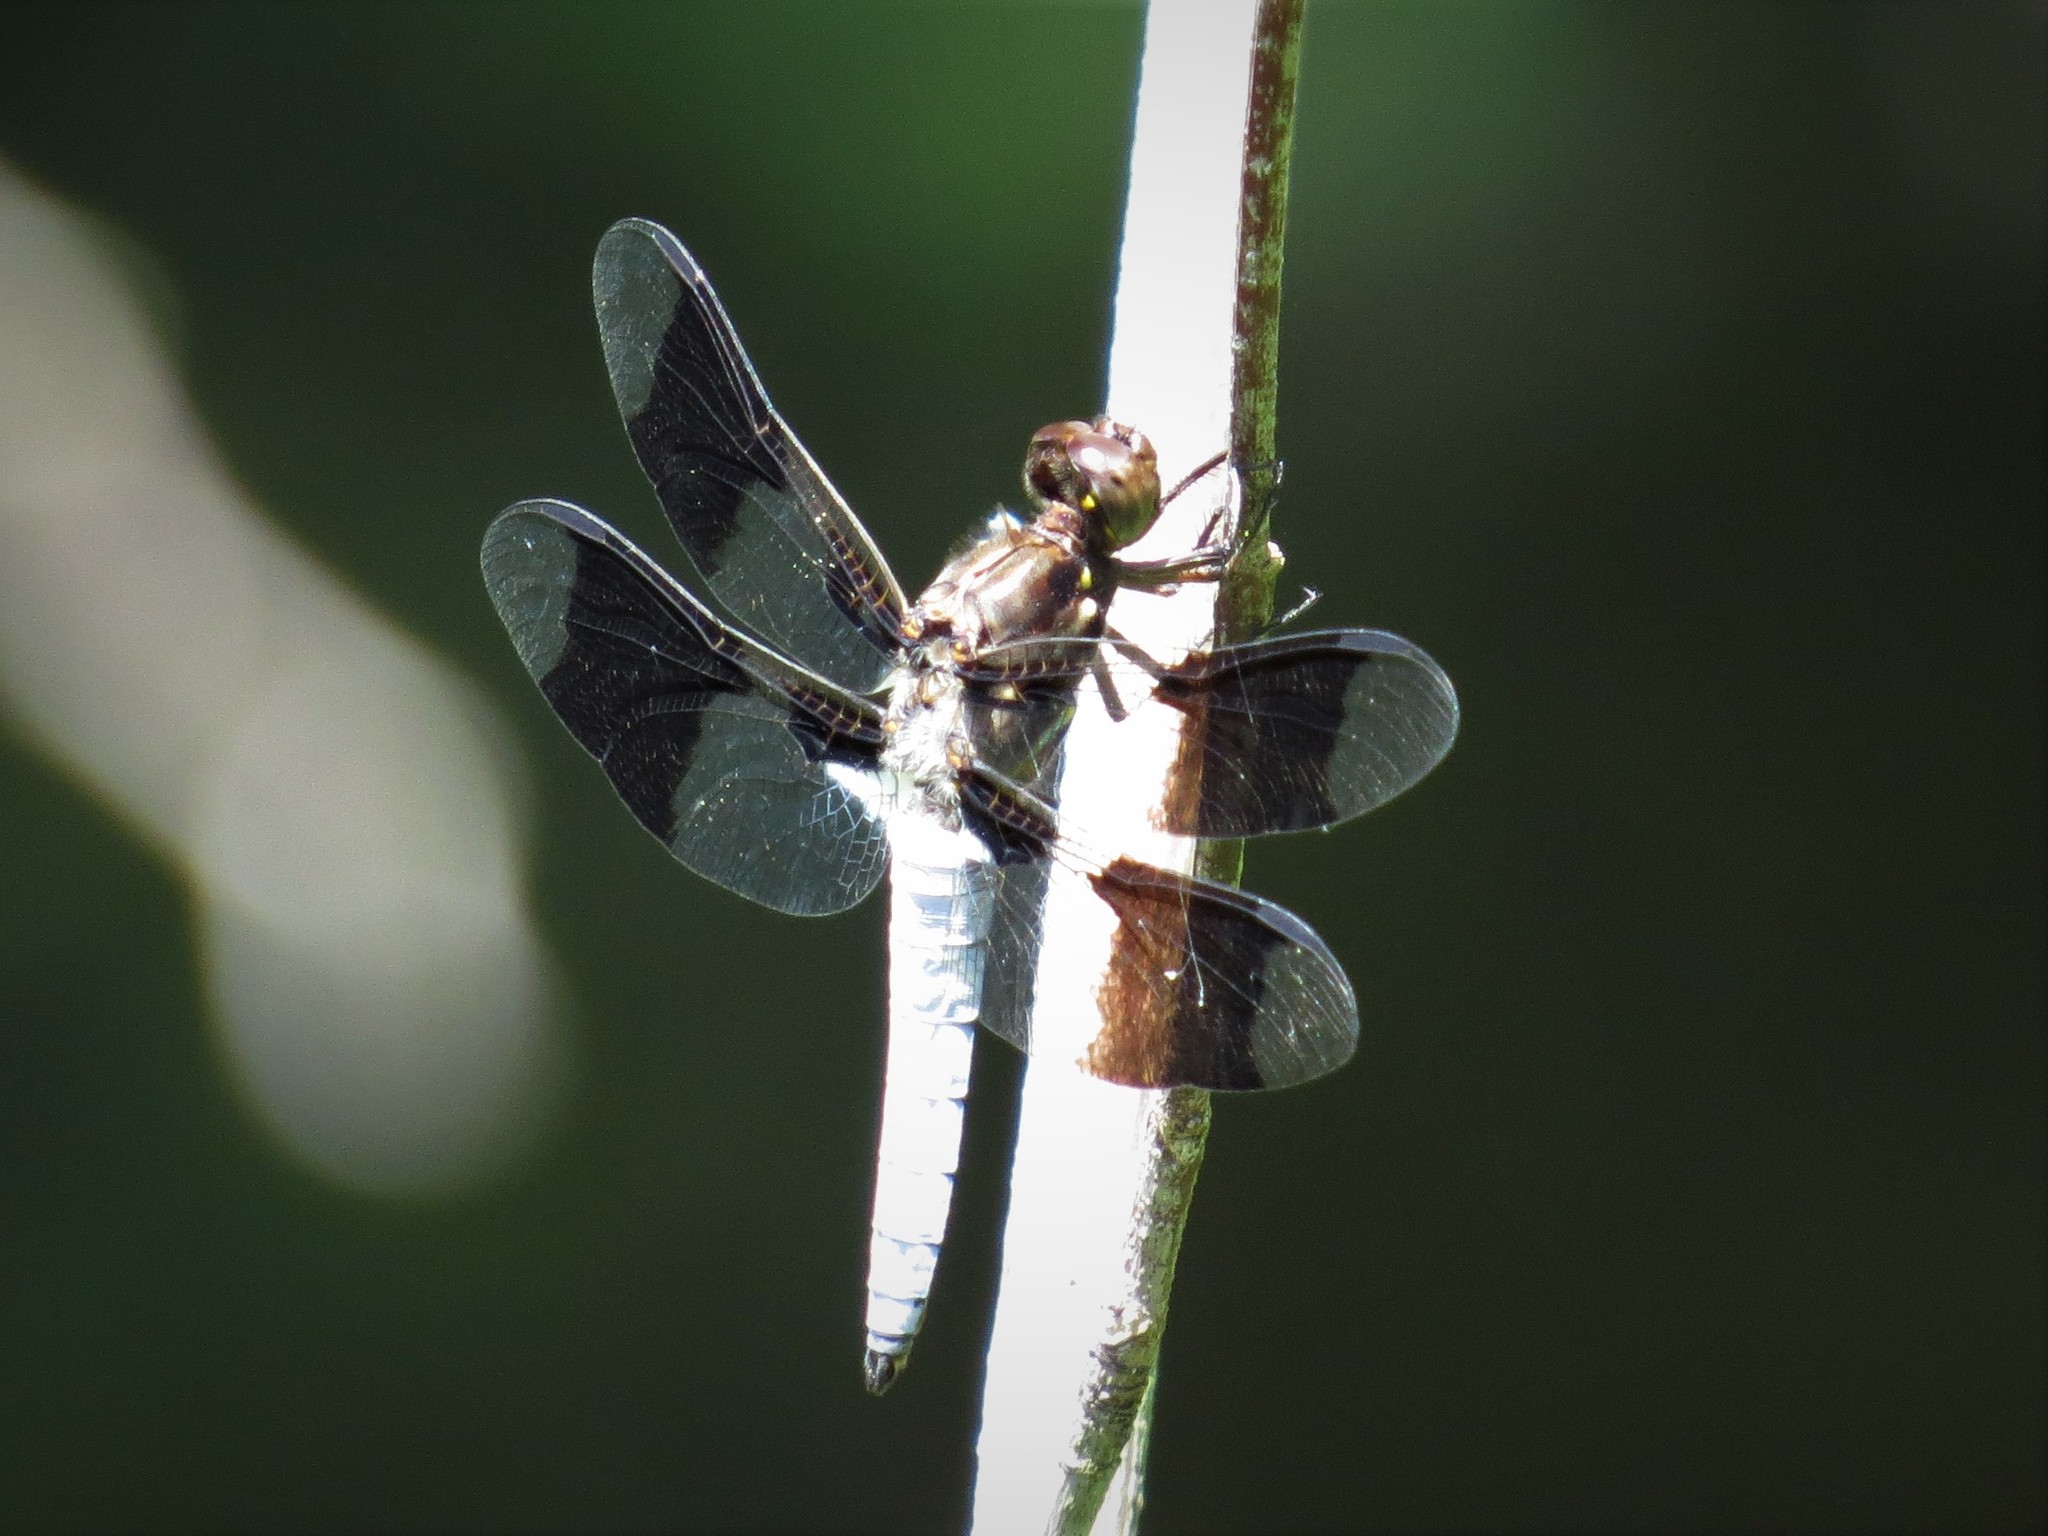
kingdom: Animalia
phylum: Arthropoda
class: Insecta
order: Odonata
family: Libellulidae
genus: Plathemis
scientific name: Plathemis lydia
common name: Common whitetail
